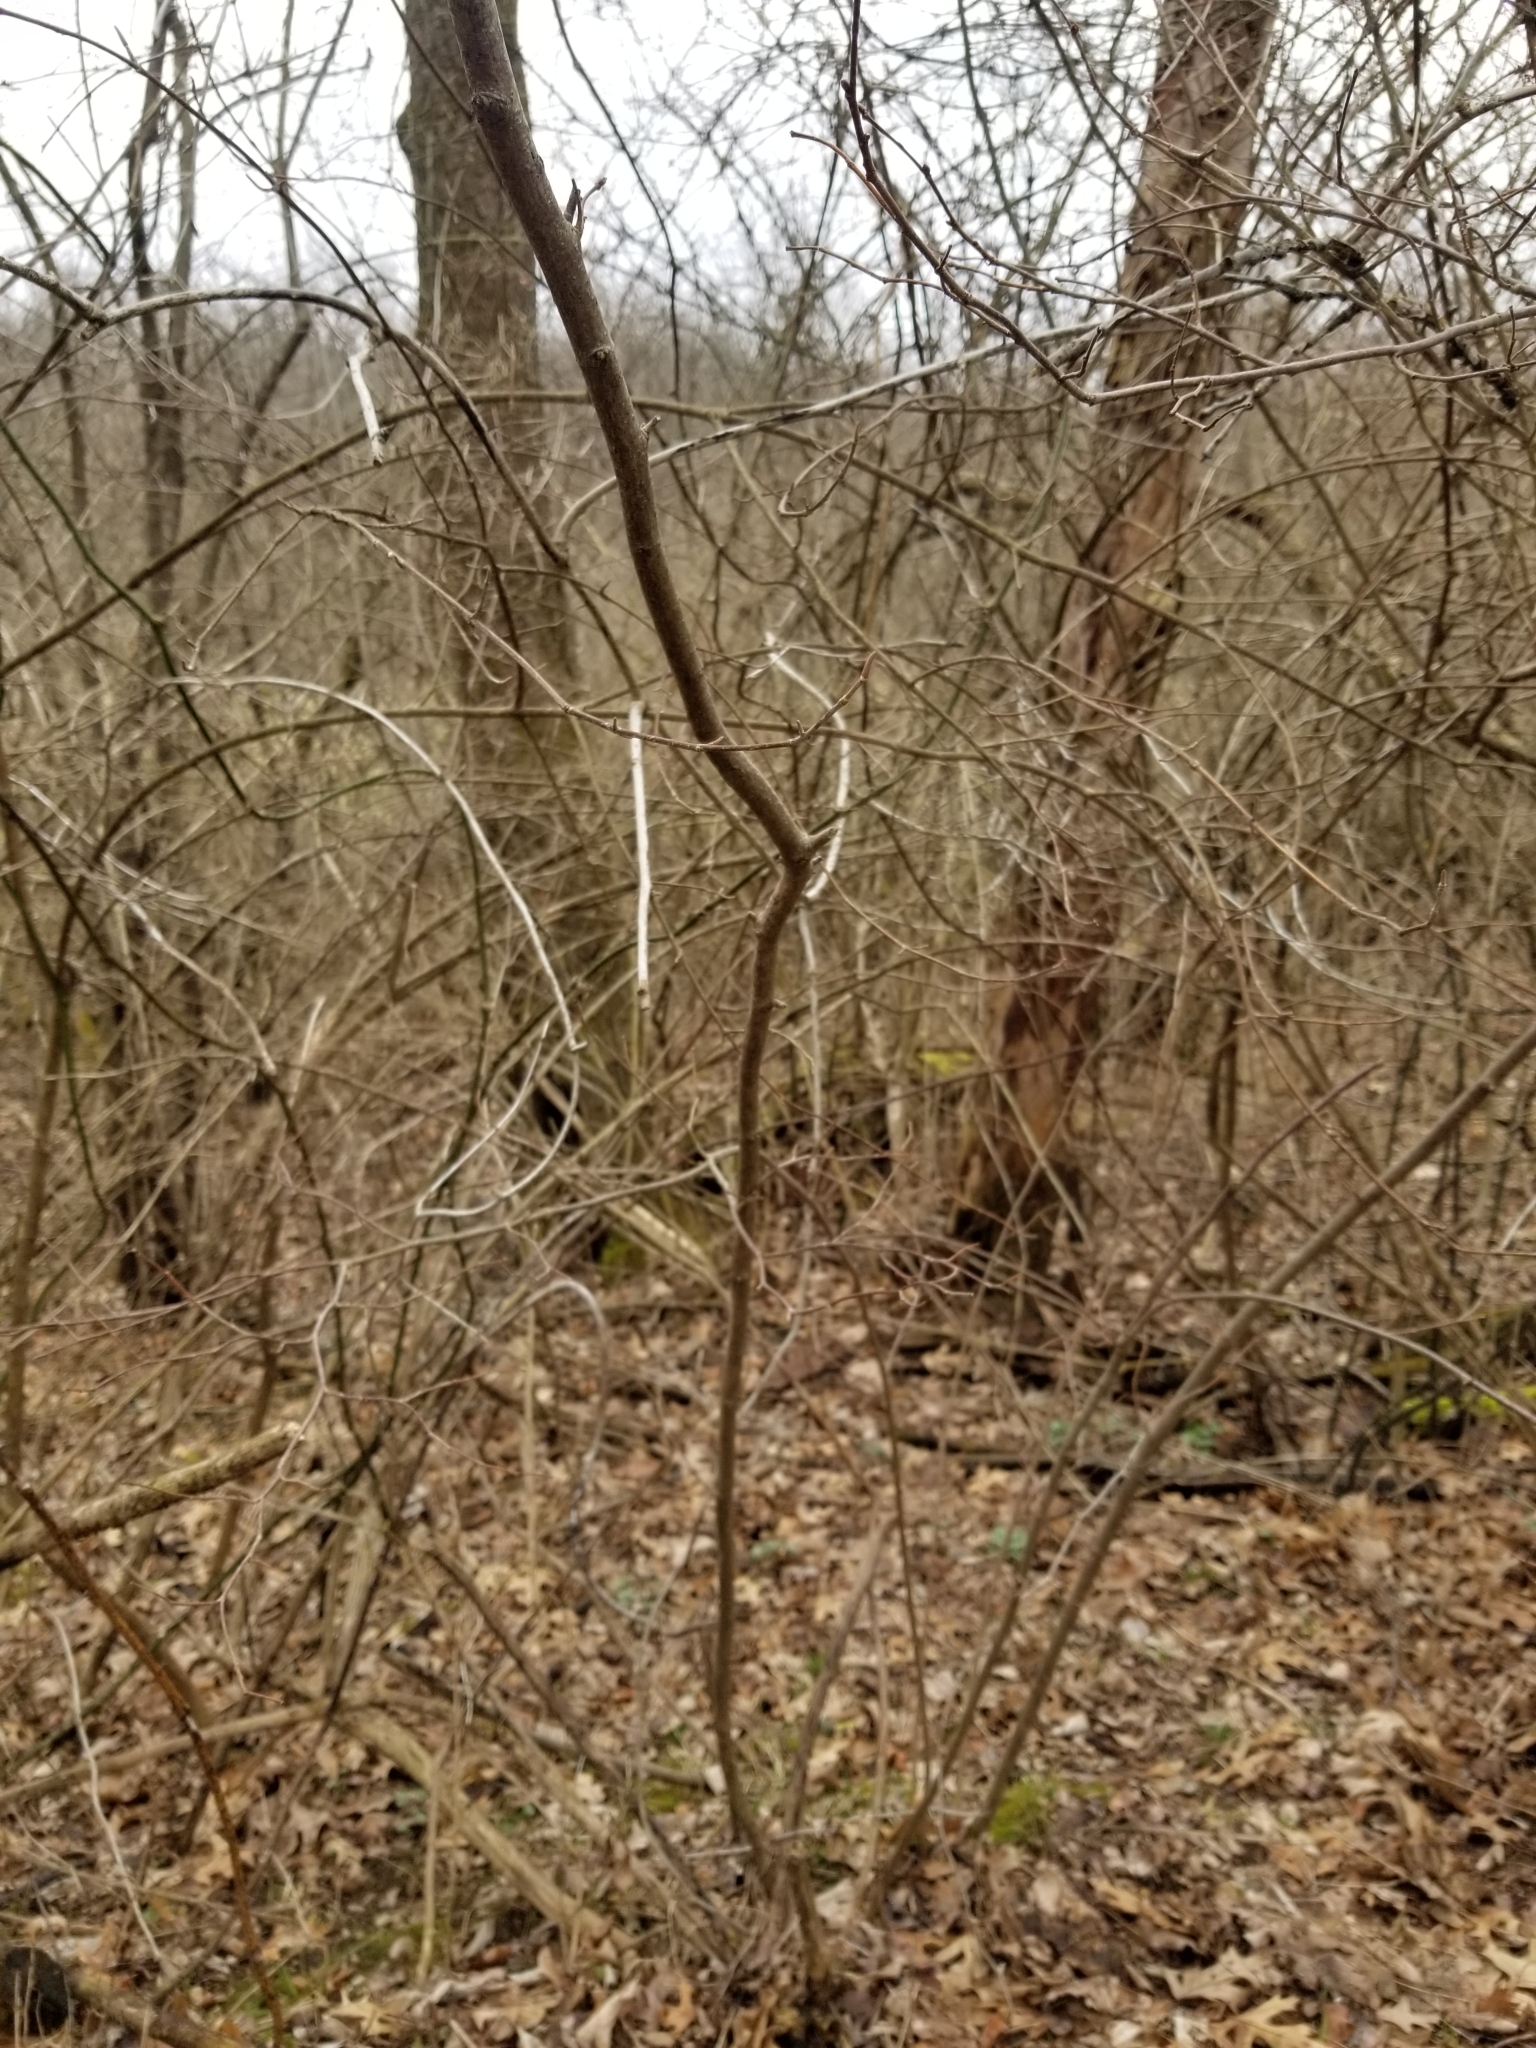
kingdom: Plantae
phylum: Tracheophyta
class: Magnoliopsida
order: Fagales
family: Betulaceae
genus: Corylus
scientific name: Corylus americana
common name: American hazel
